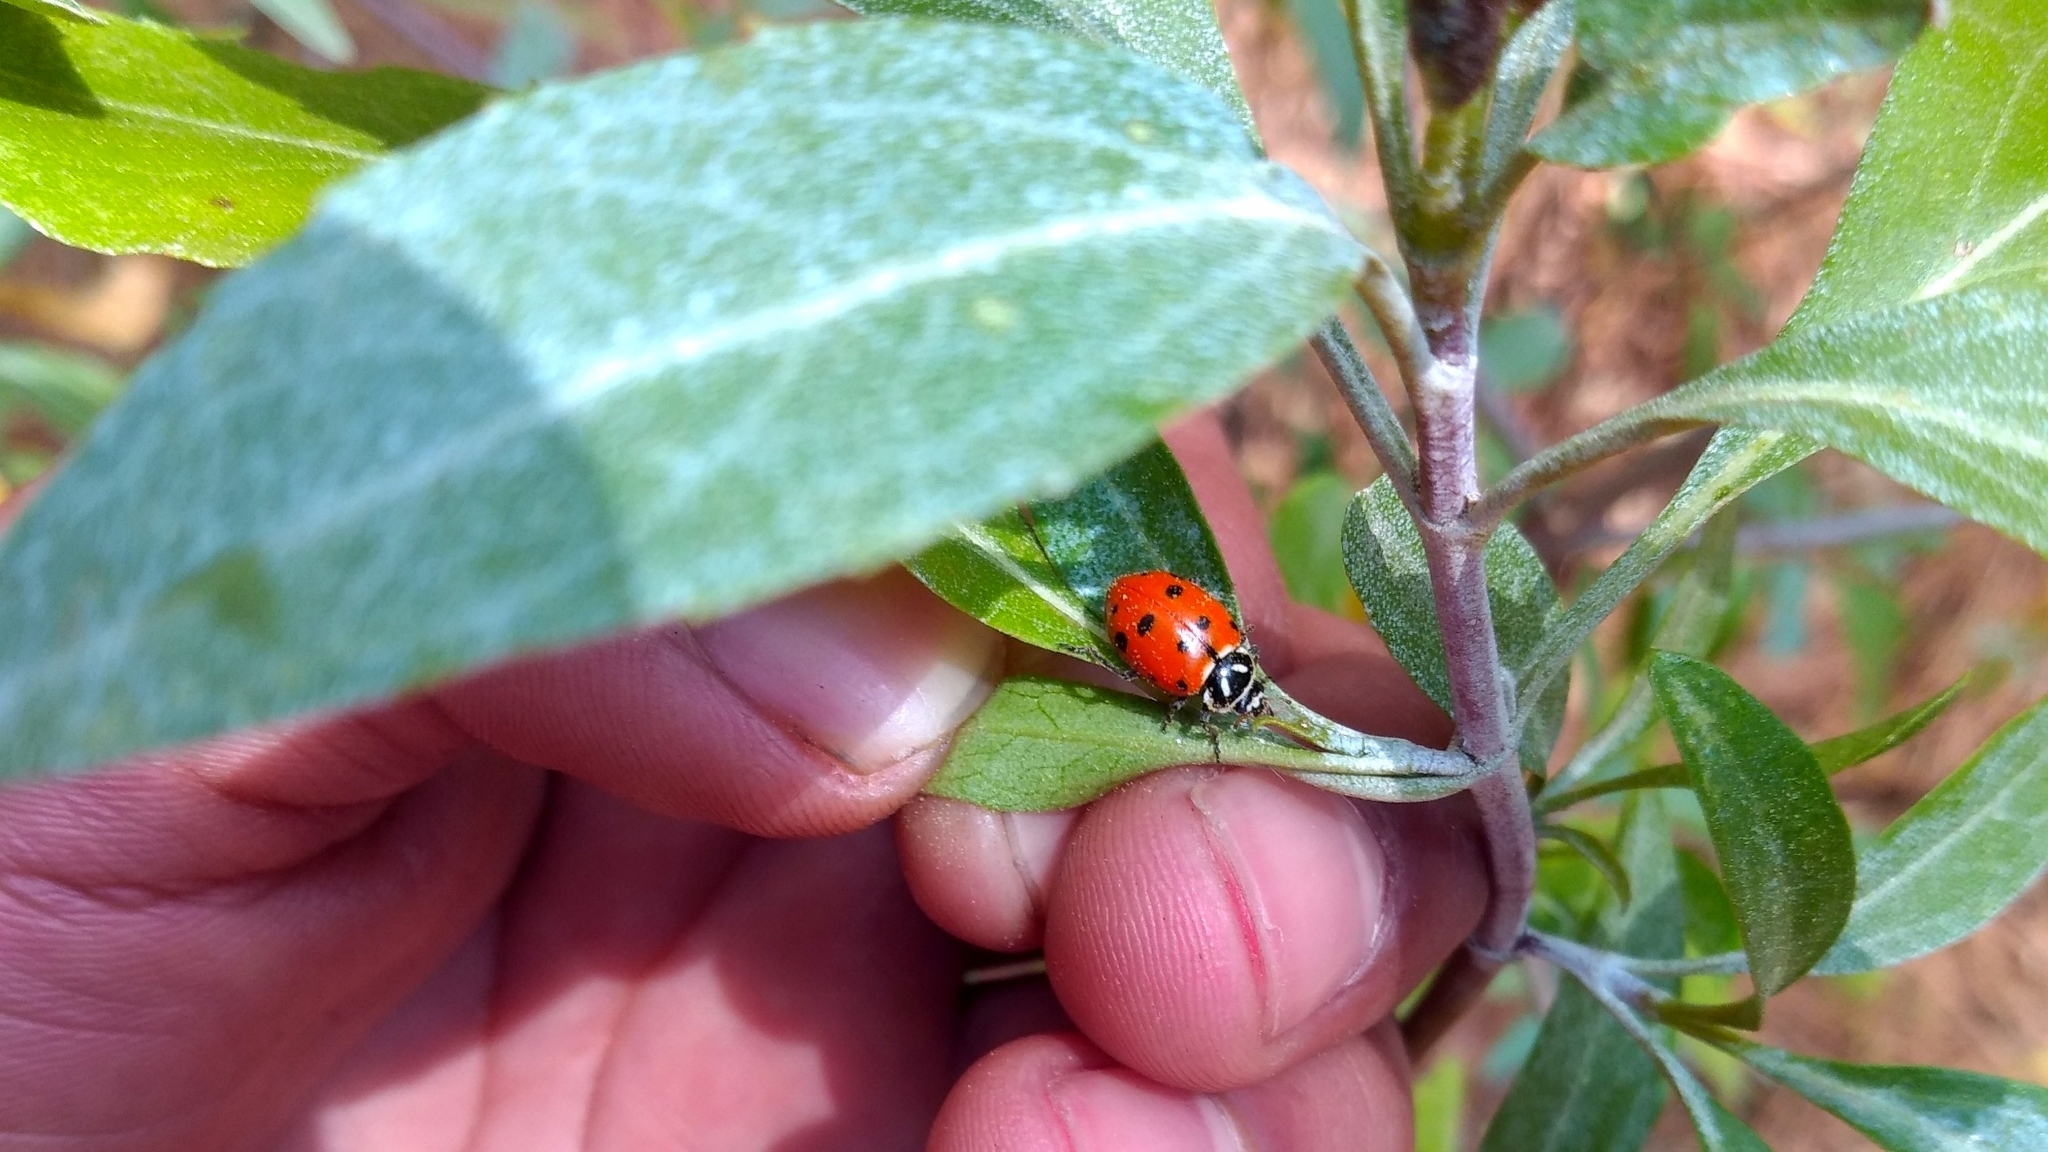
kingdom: Animalia
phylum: Arthropoda
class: Insecta
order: Coleoptera
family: Coccinellidae
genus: Hippodamia
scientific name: Hippodamia convergens
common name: Convergent lady beetle
